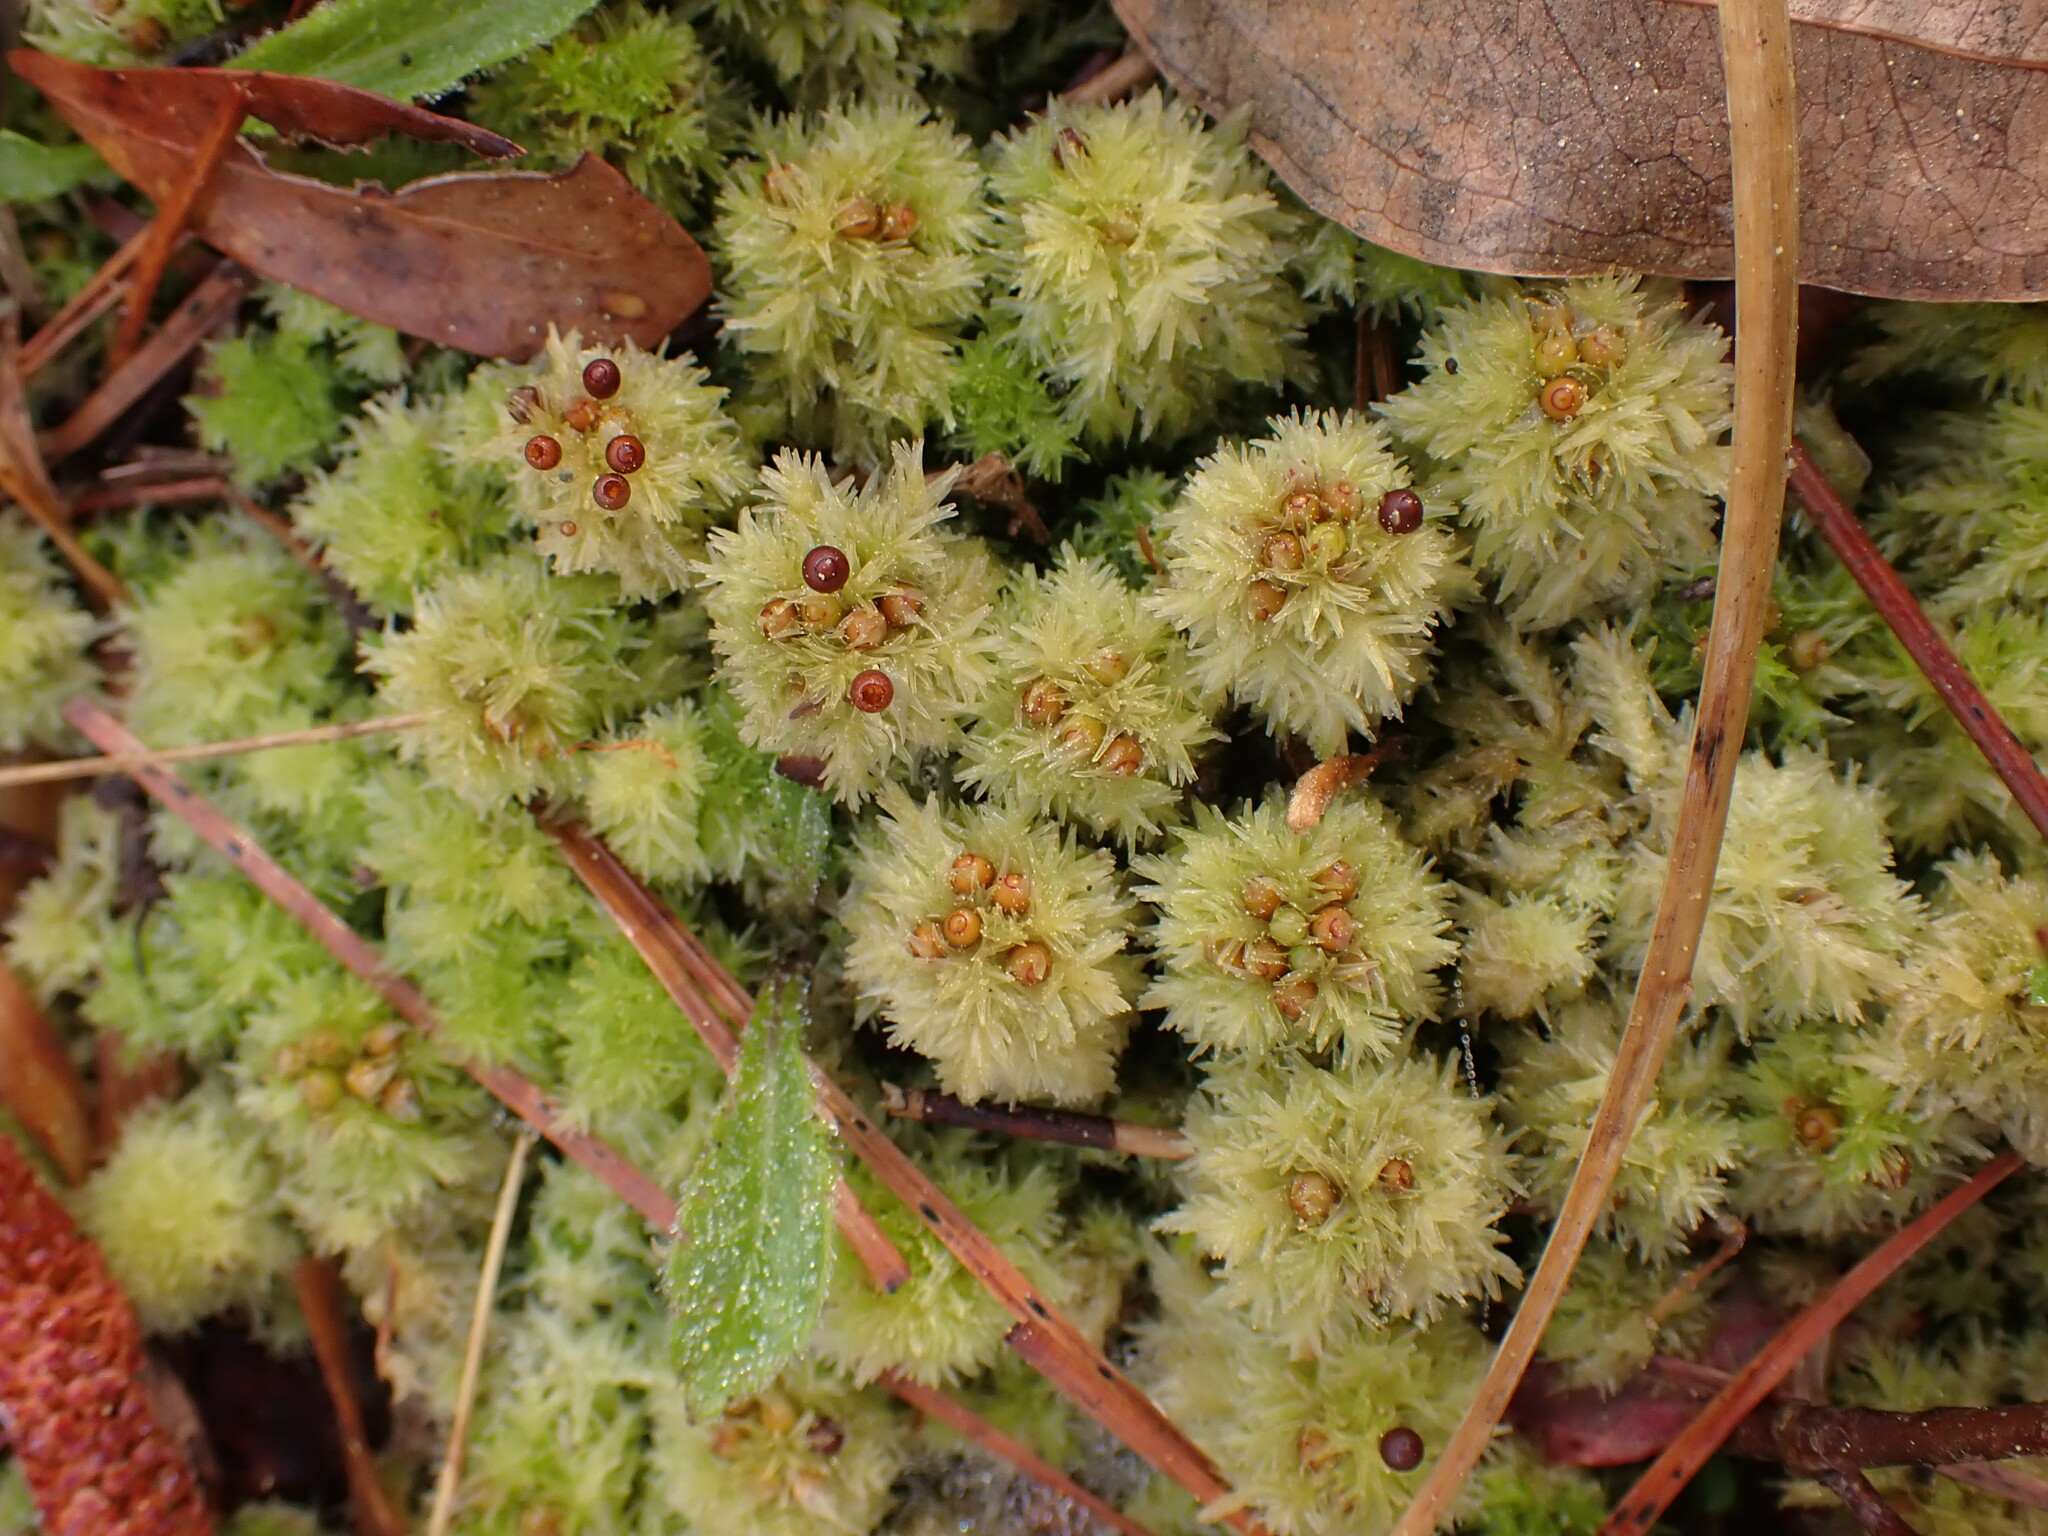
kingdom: Plantae
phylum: Bryophyta
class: Sphagnopsida
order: Sphagnales
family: Sphagnaceae
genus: Sphagnum
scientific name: Sphagnum strictum
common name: Pale bog-moss
